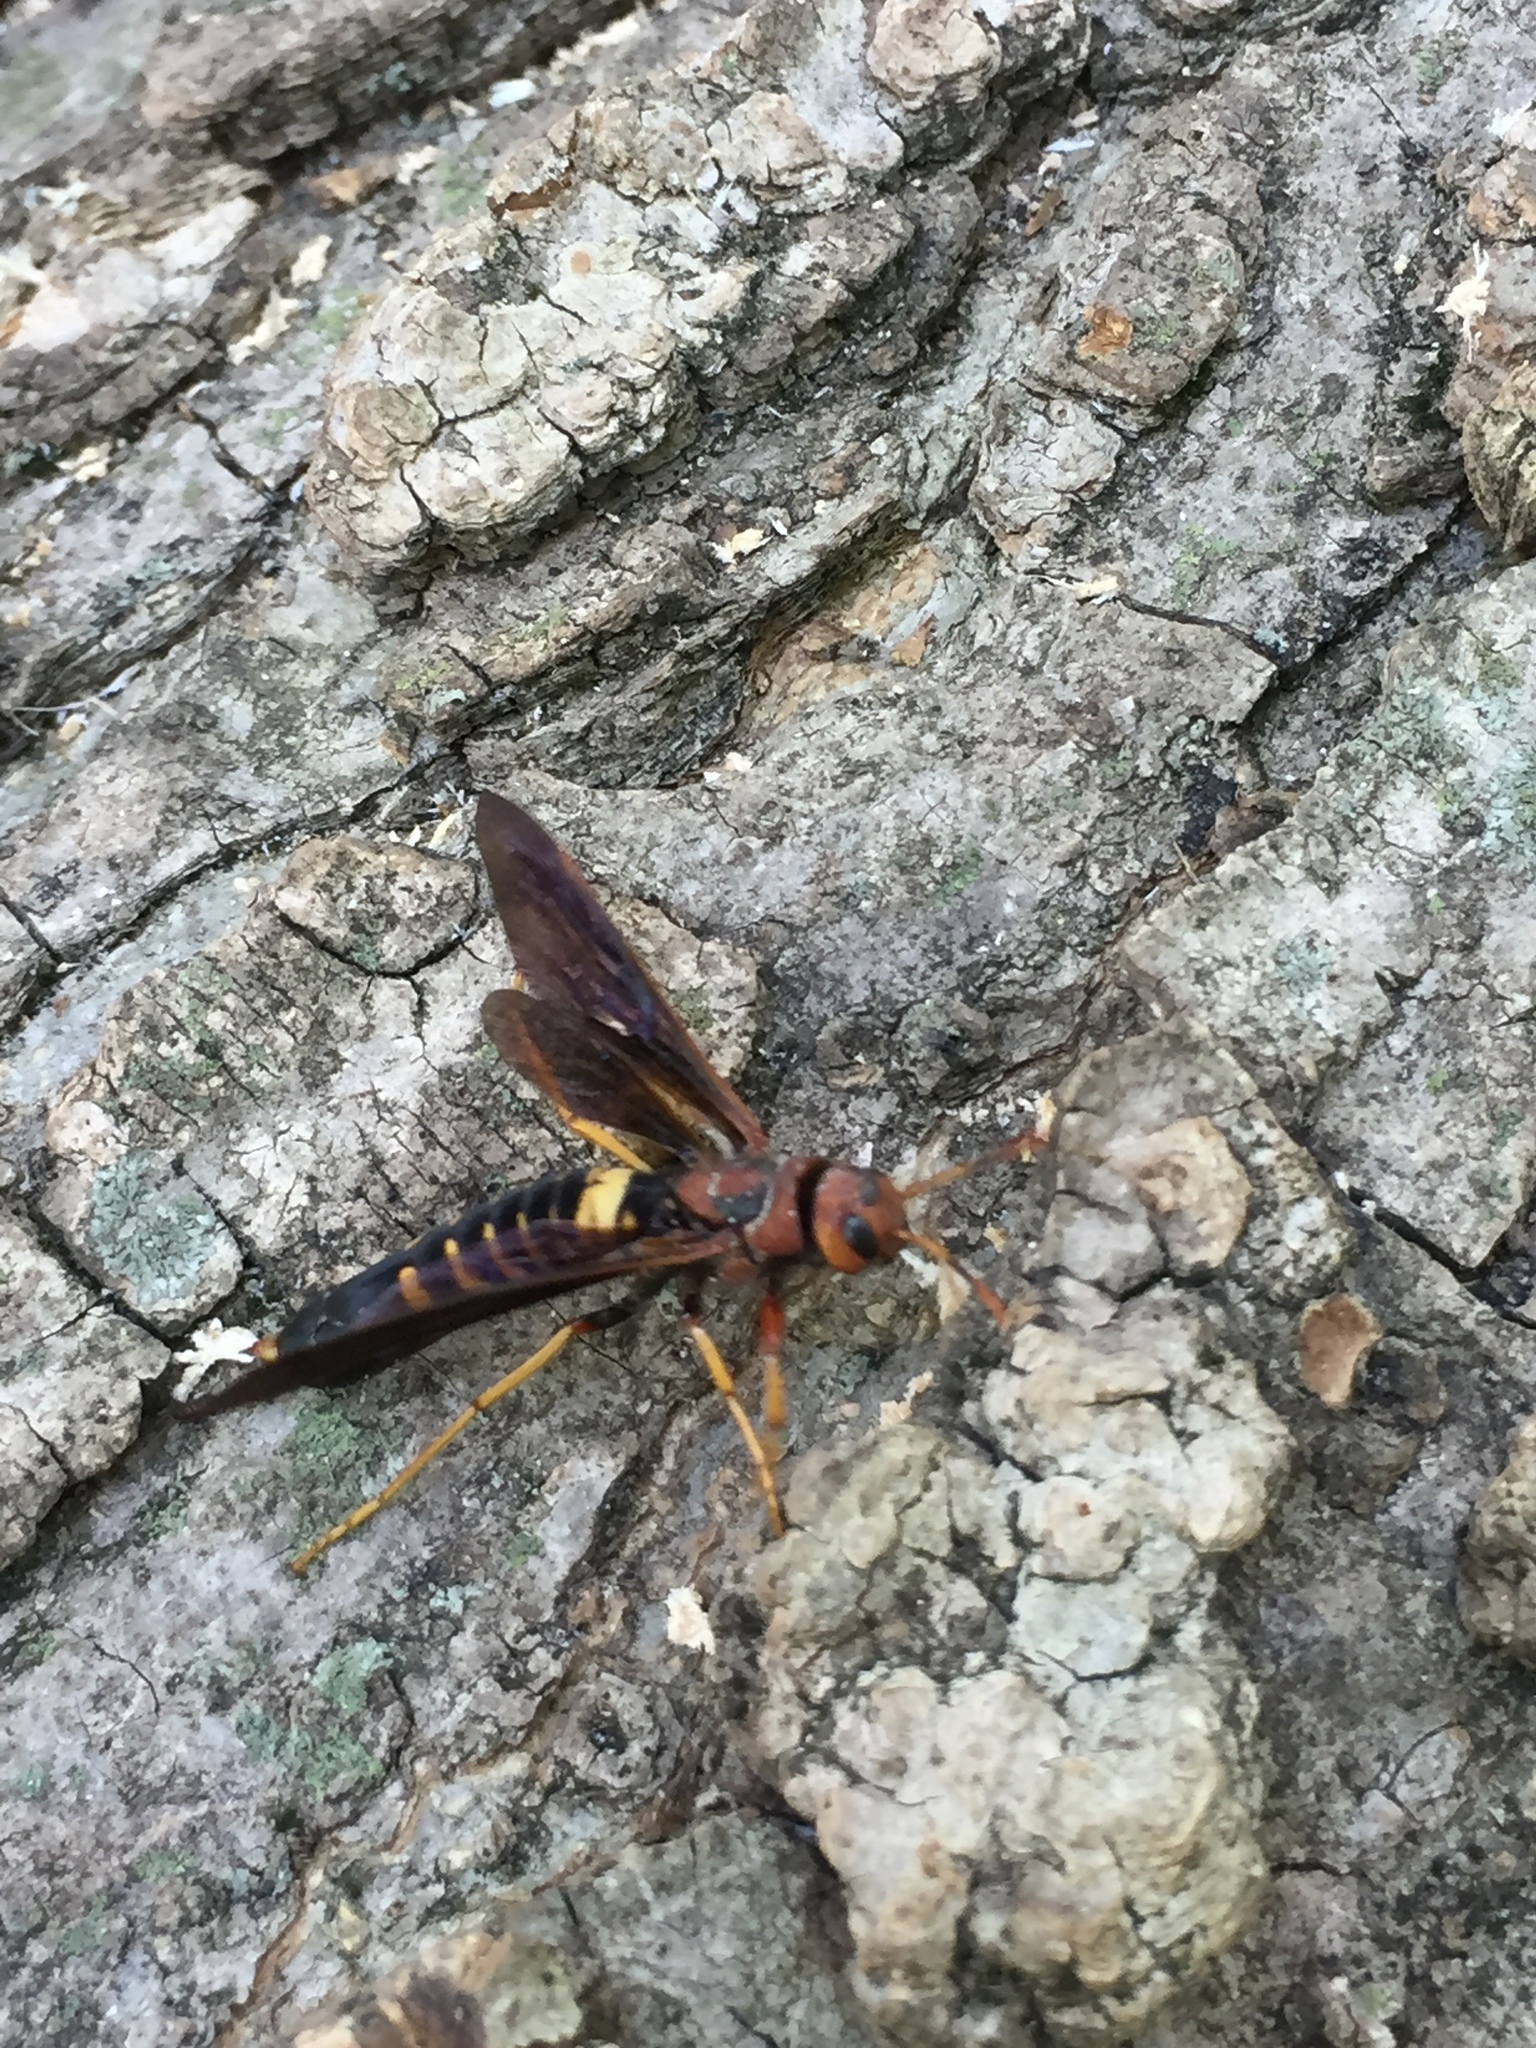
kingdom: Animalia
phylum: Arthropoda
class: Insecta
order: Hymenoptera
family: Siricidae
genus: Tremex
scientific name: Tremex columba
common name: Wasp
